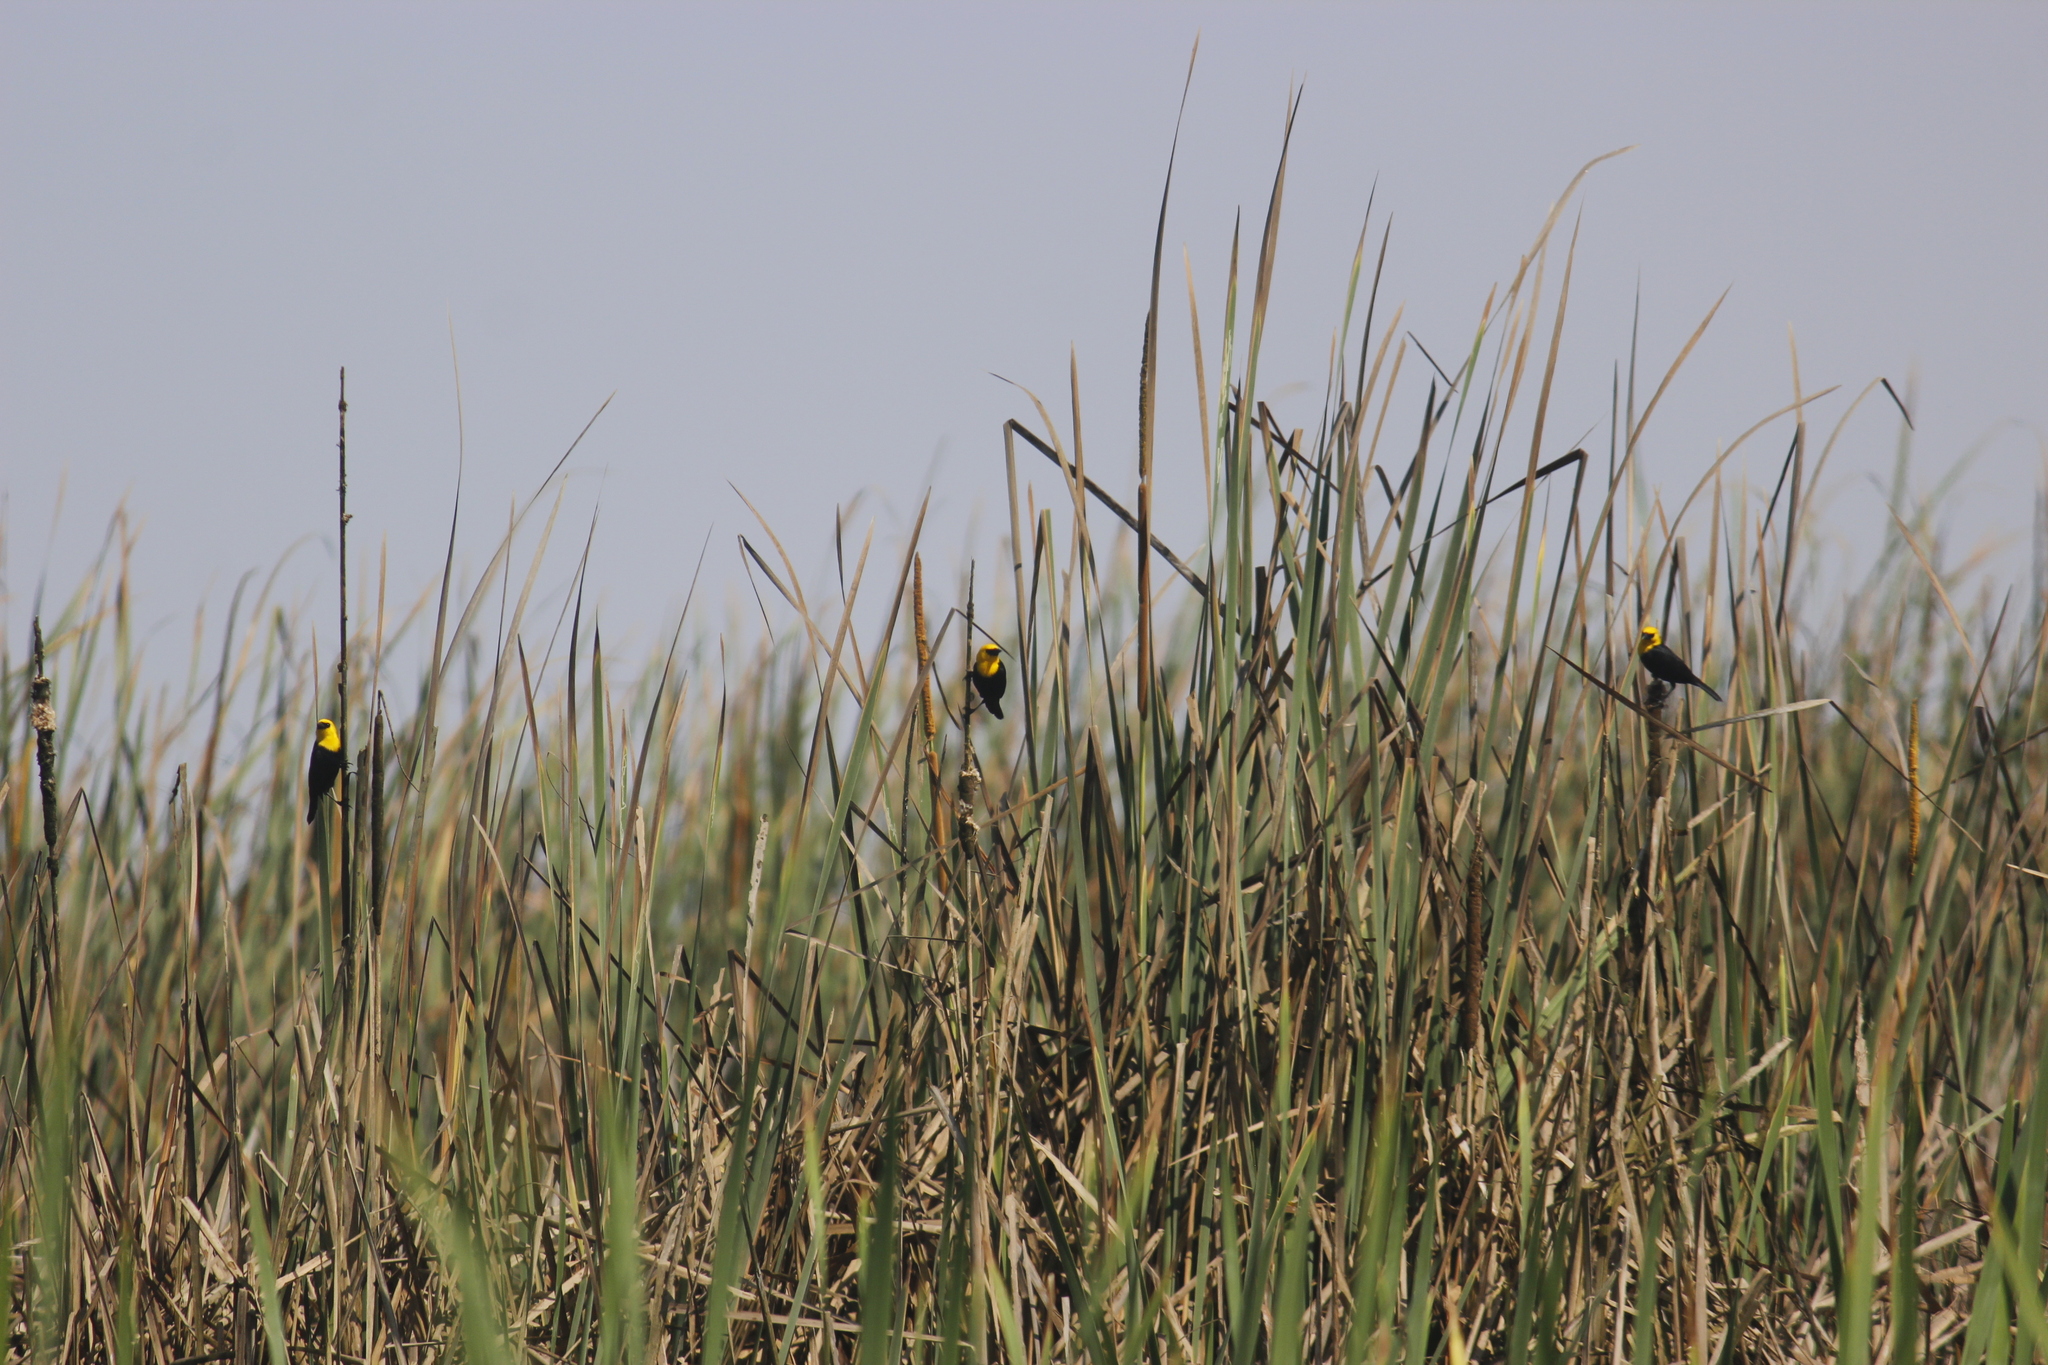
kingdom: Animalia
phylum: Chordata
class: Aves
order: Passeriformes
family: Icteridae
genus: Chrysomus
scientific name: Chrysomus icterocephalus
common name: Yellow-hooded blackbird
